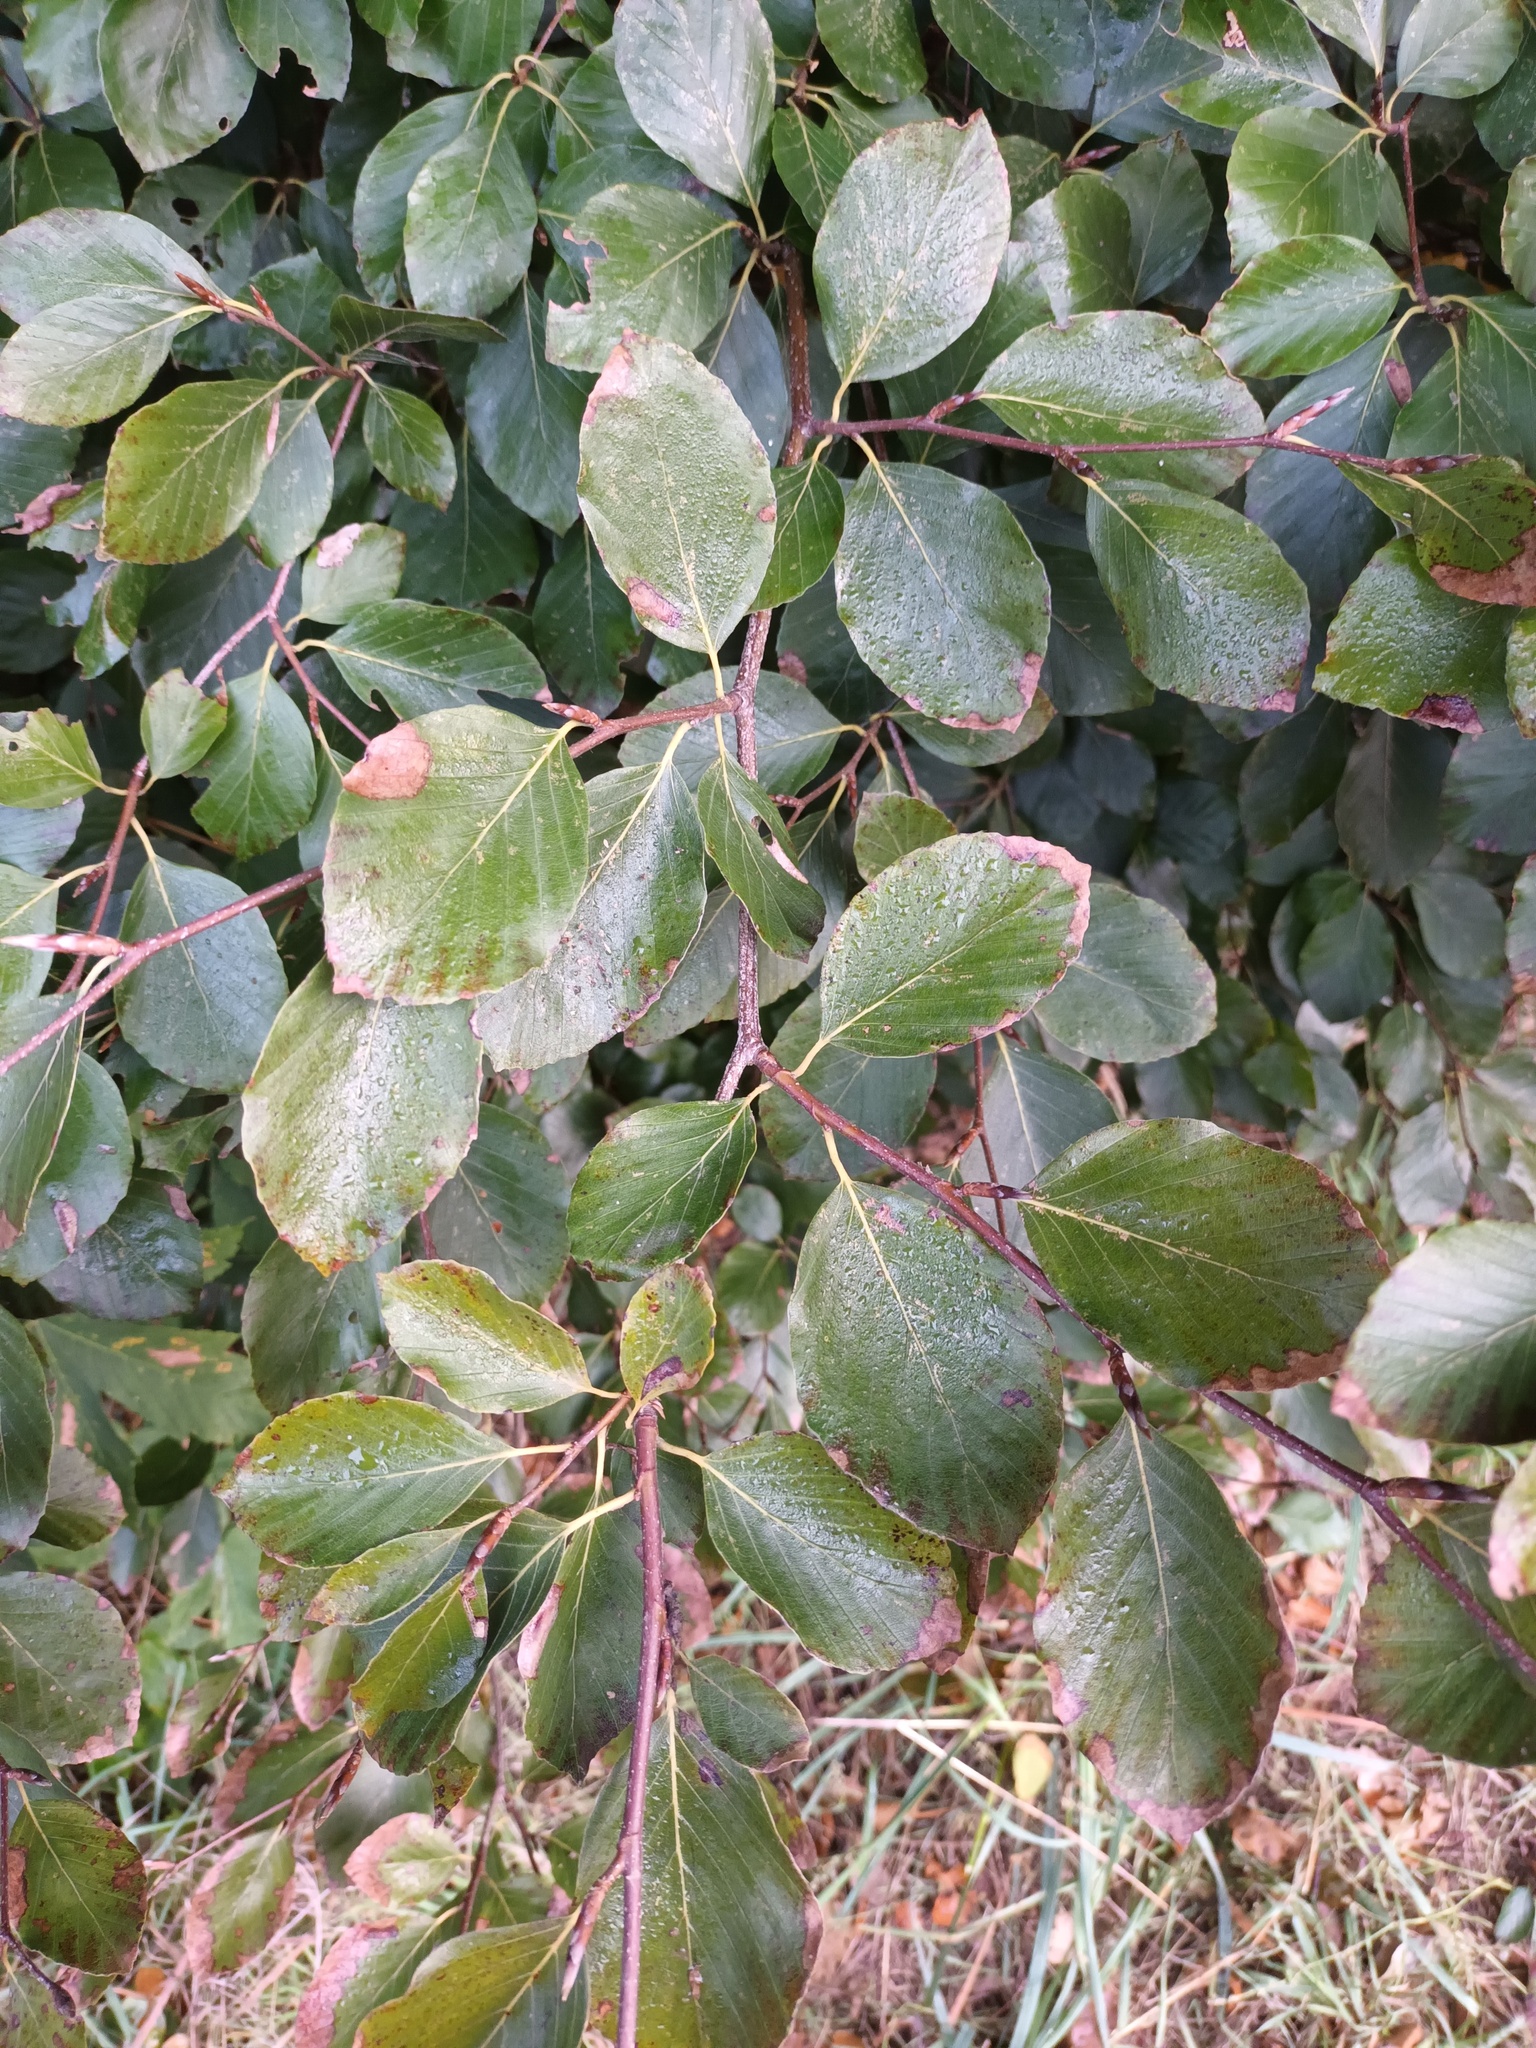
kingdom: Plantae
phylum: Tracheophyta
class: Magnoliopsida
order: Fagales
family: Fagaceae
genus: Fagus
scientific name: Fagus sylvatica
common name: Beech
